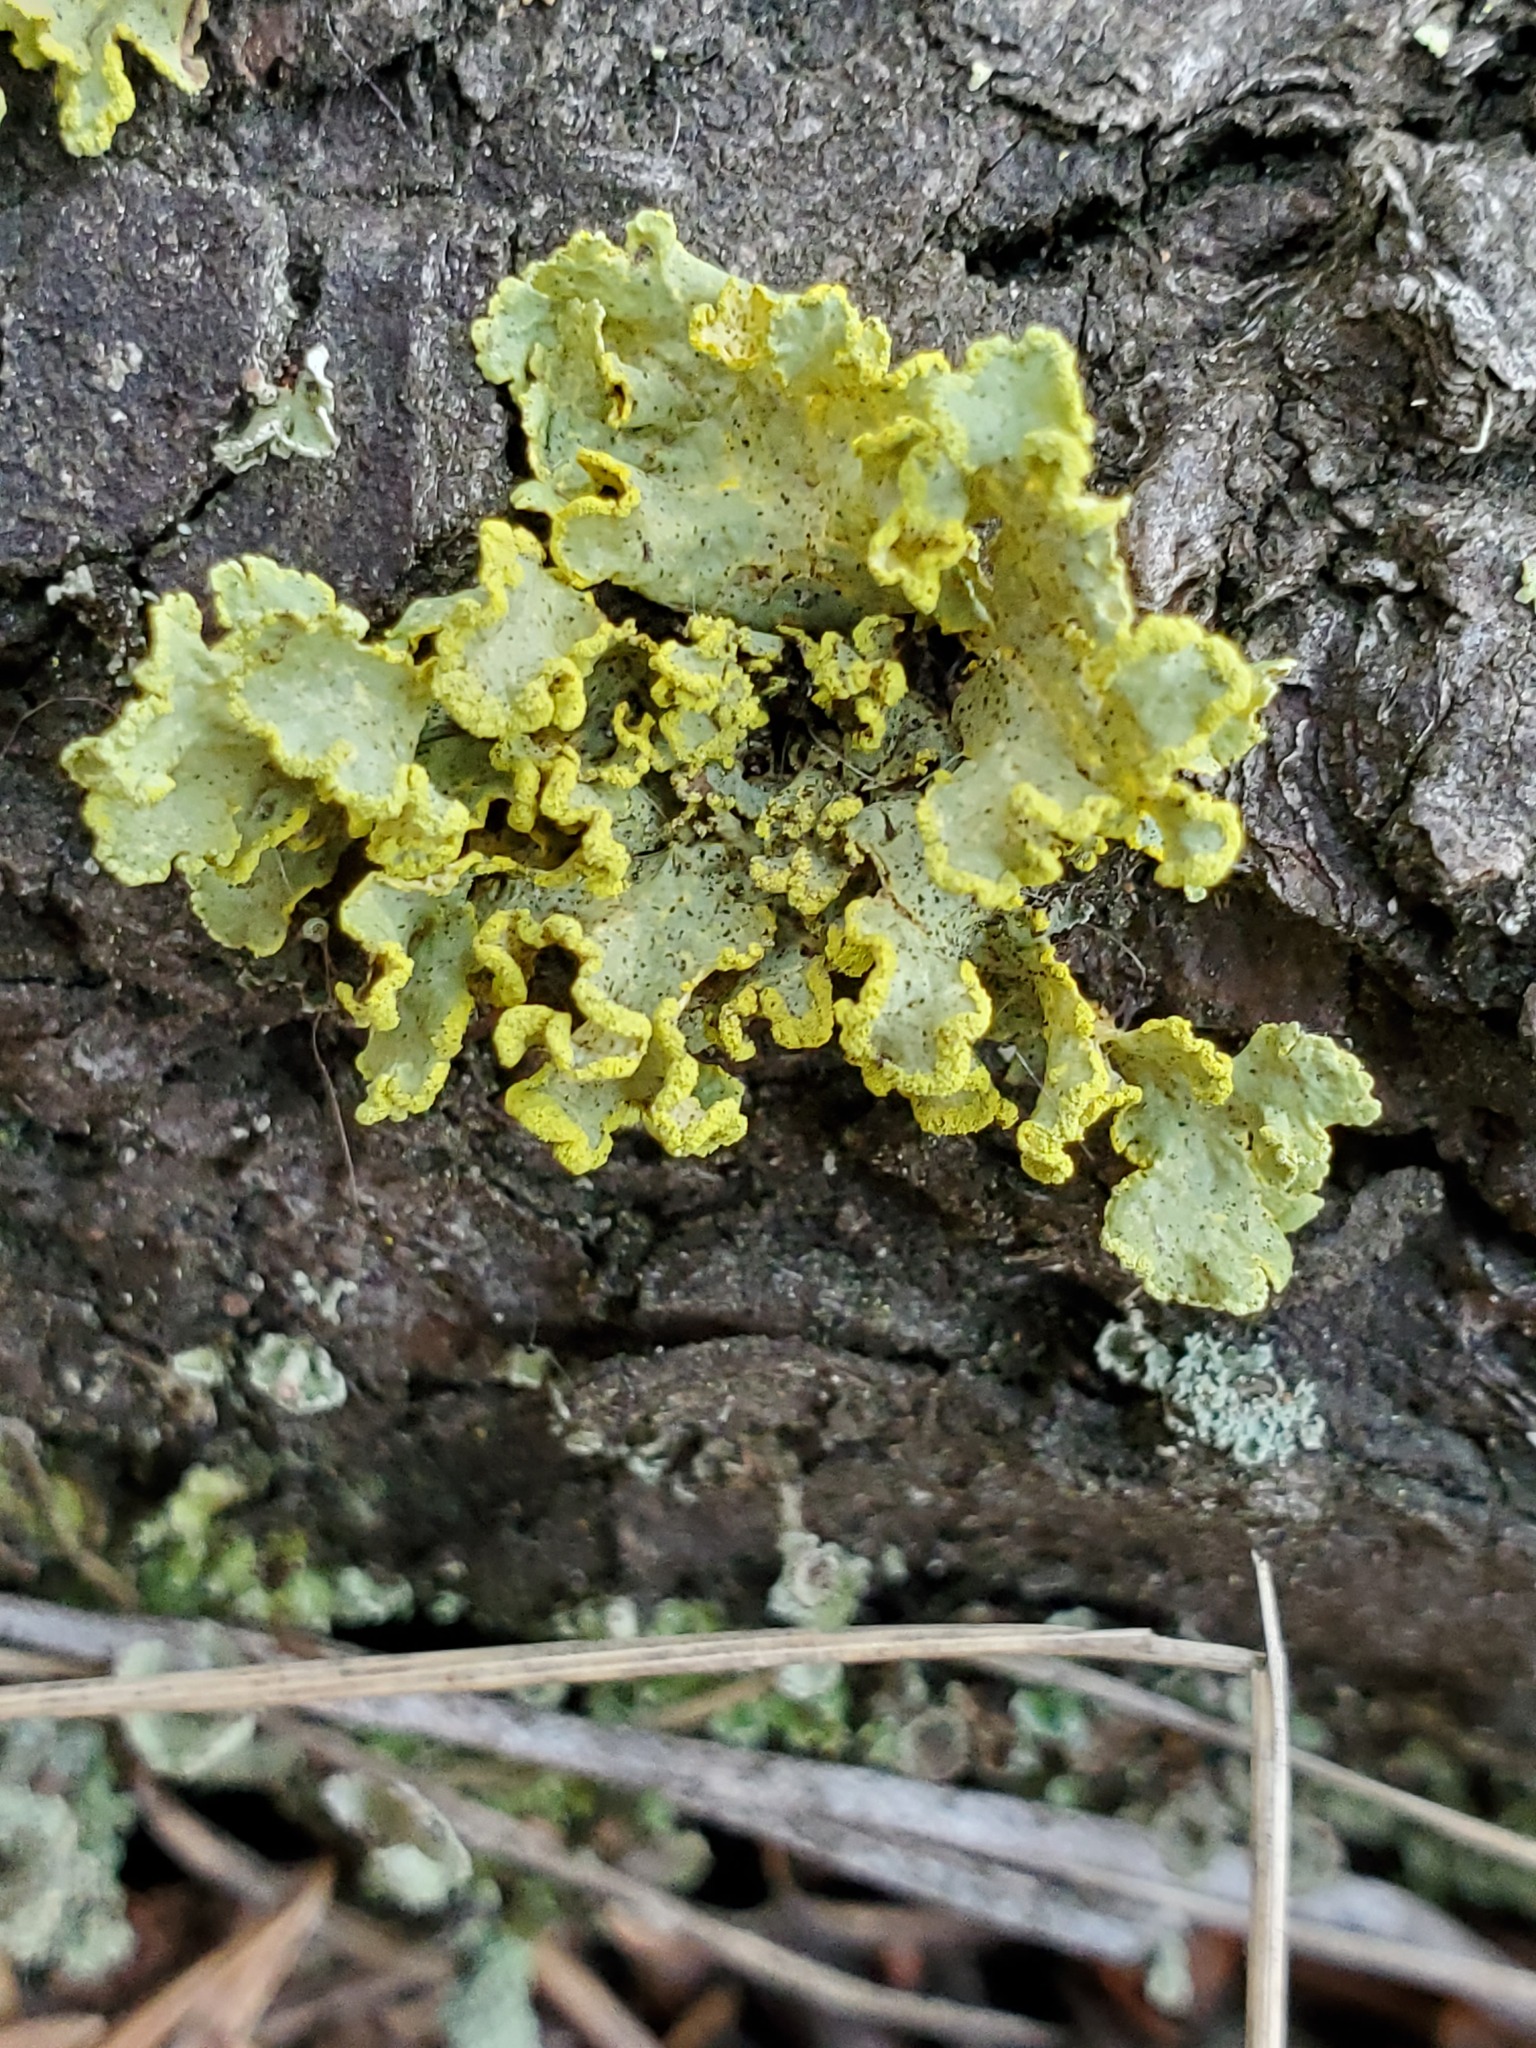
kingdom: Fungi
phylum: Ascomycota
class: Lecanoromycetes
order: Lecanorales
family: Parmeliaceae
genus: Vulpicida
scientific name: Vulpicida pinastri
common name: Powdered sunshine lichen
